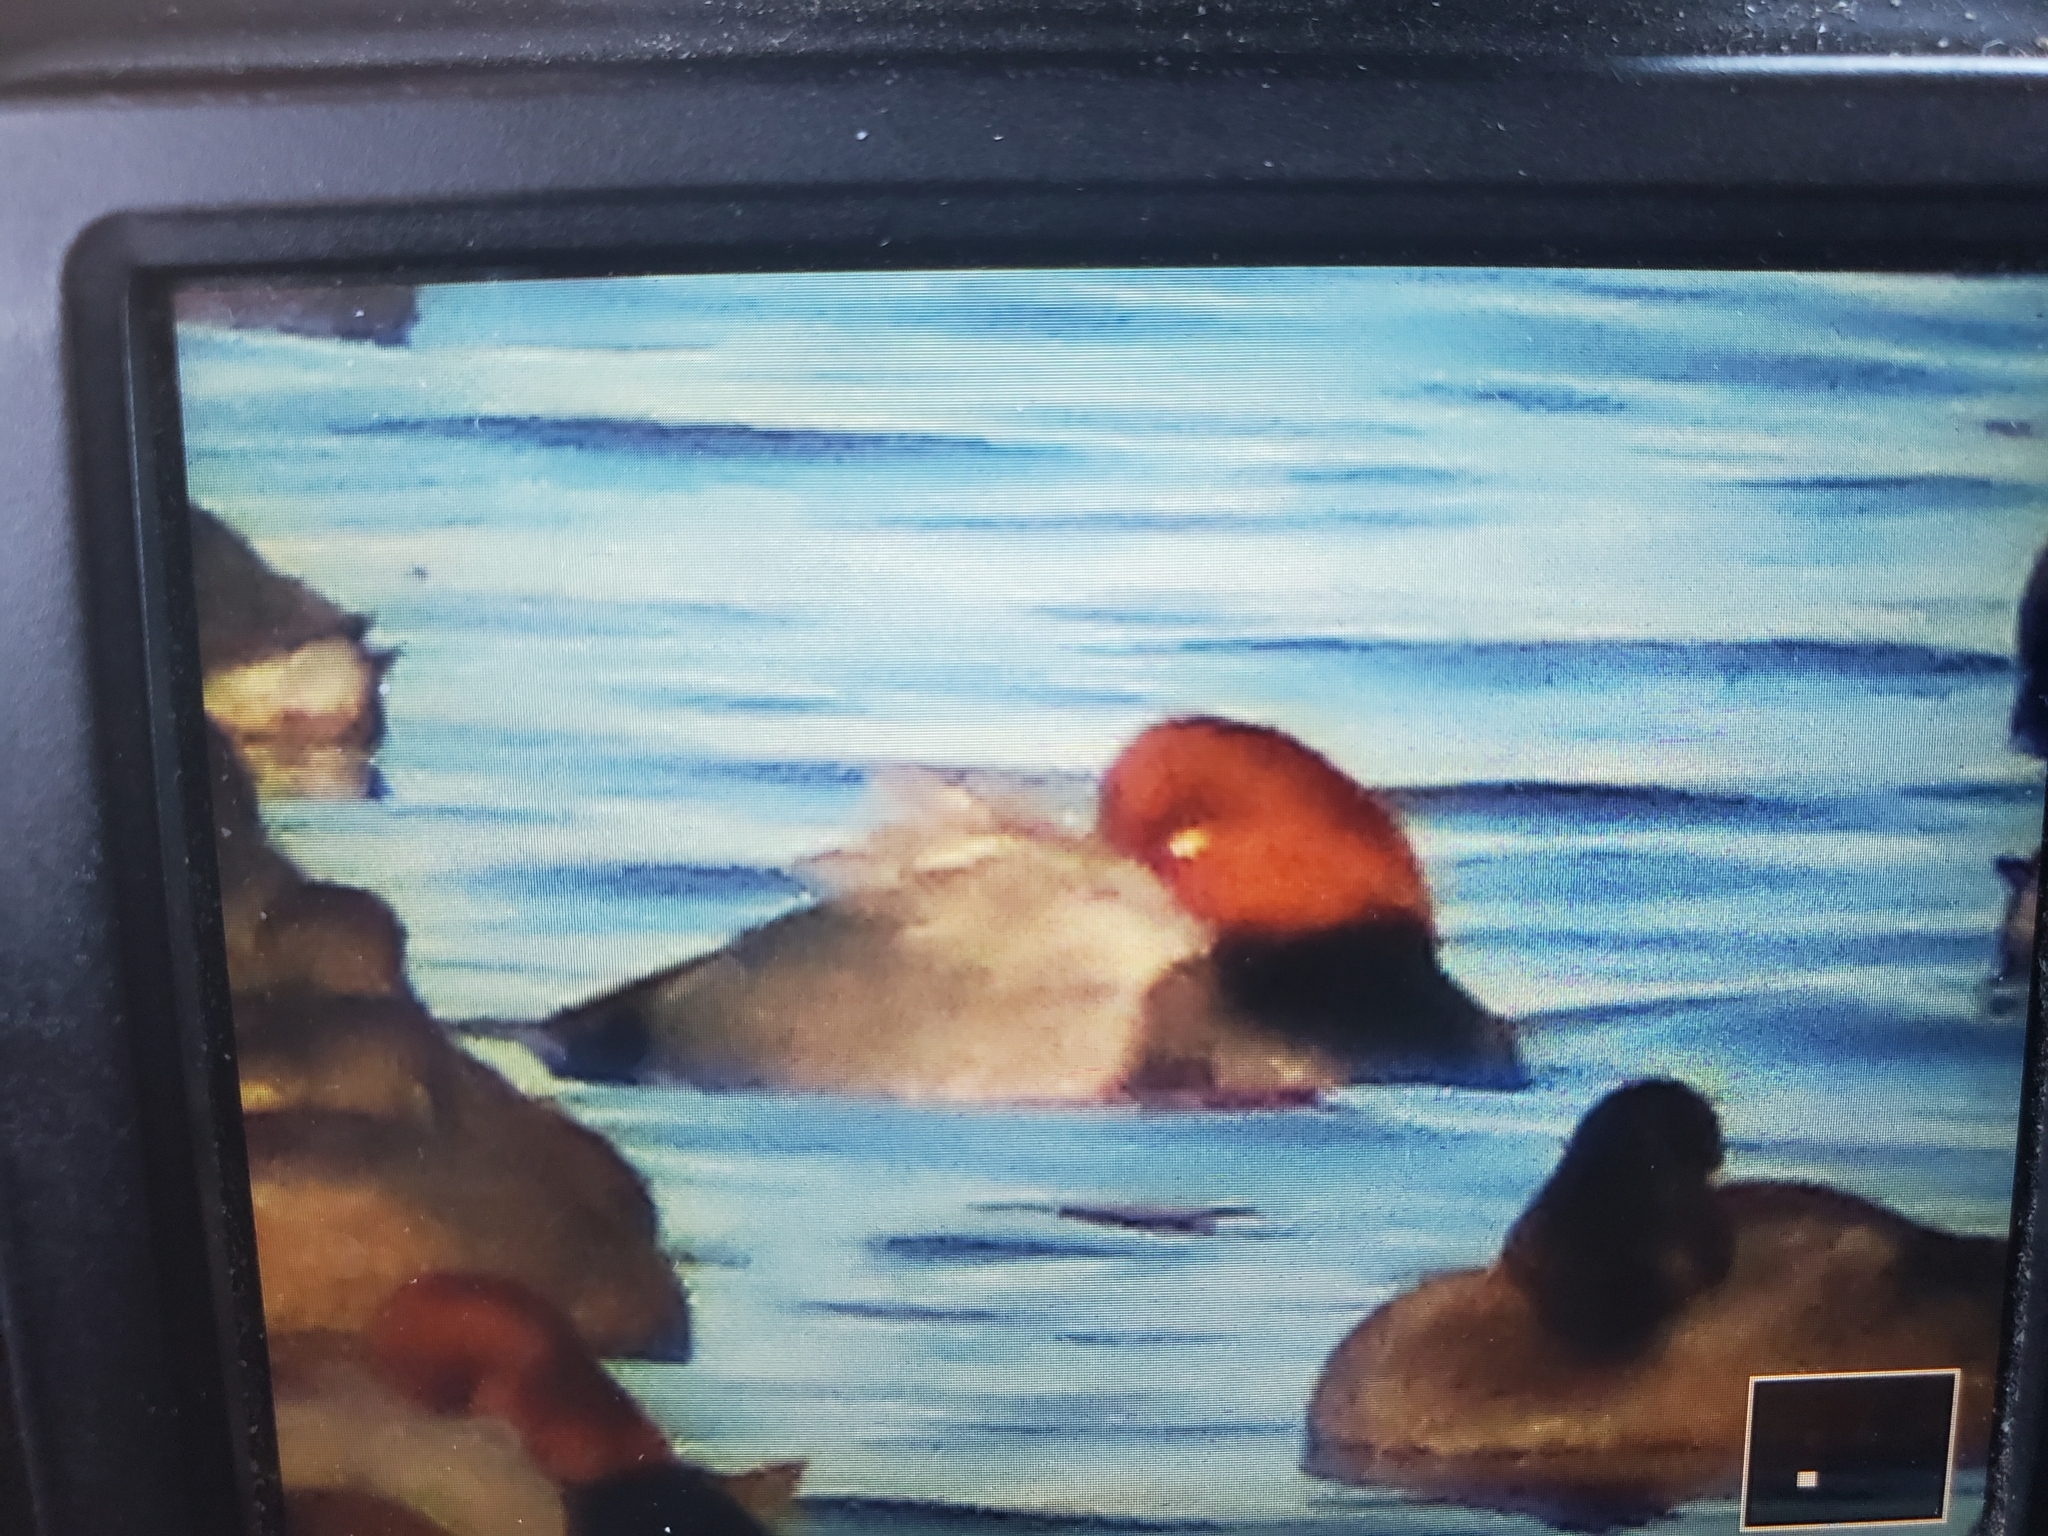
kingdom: Animalia
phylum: Chordata
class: Aves
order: Anseriformes
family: Anatidae
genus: Aythya
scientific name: Aythya americana
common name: Redhead
